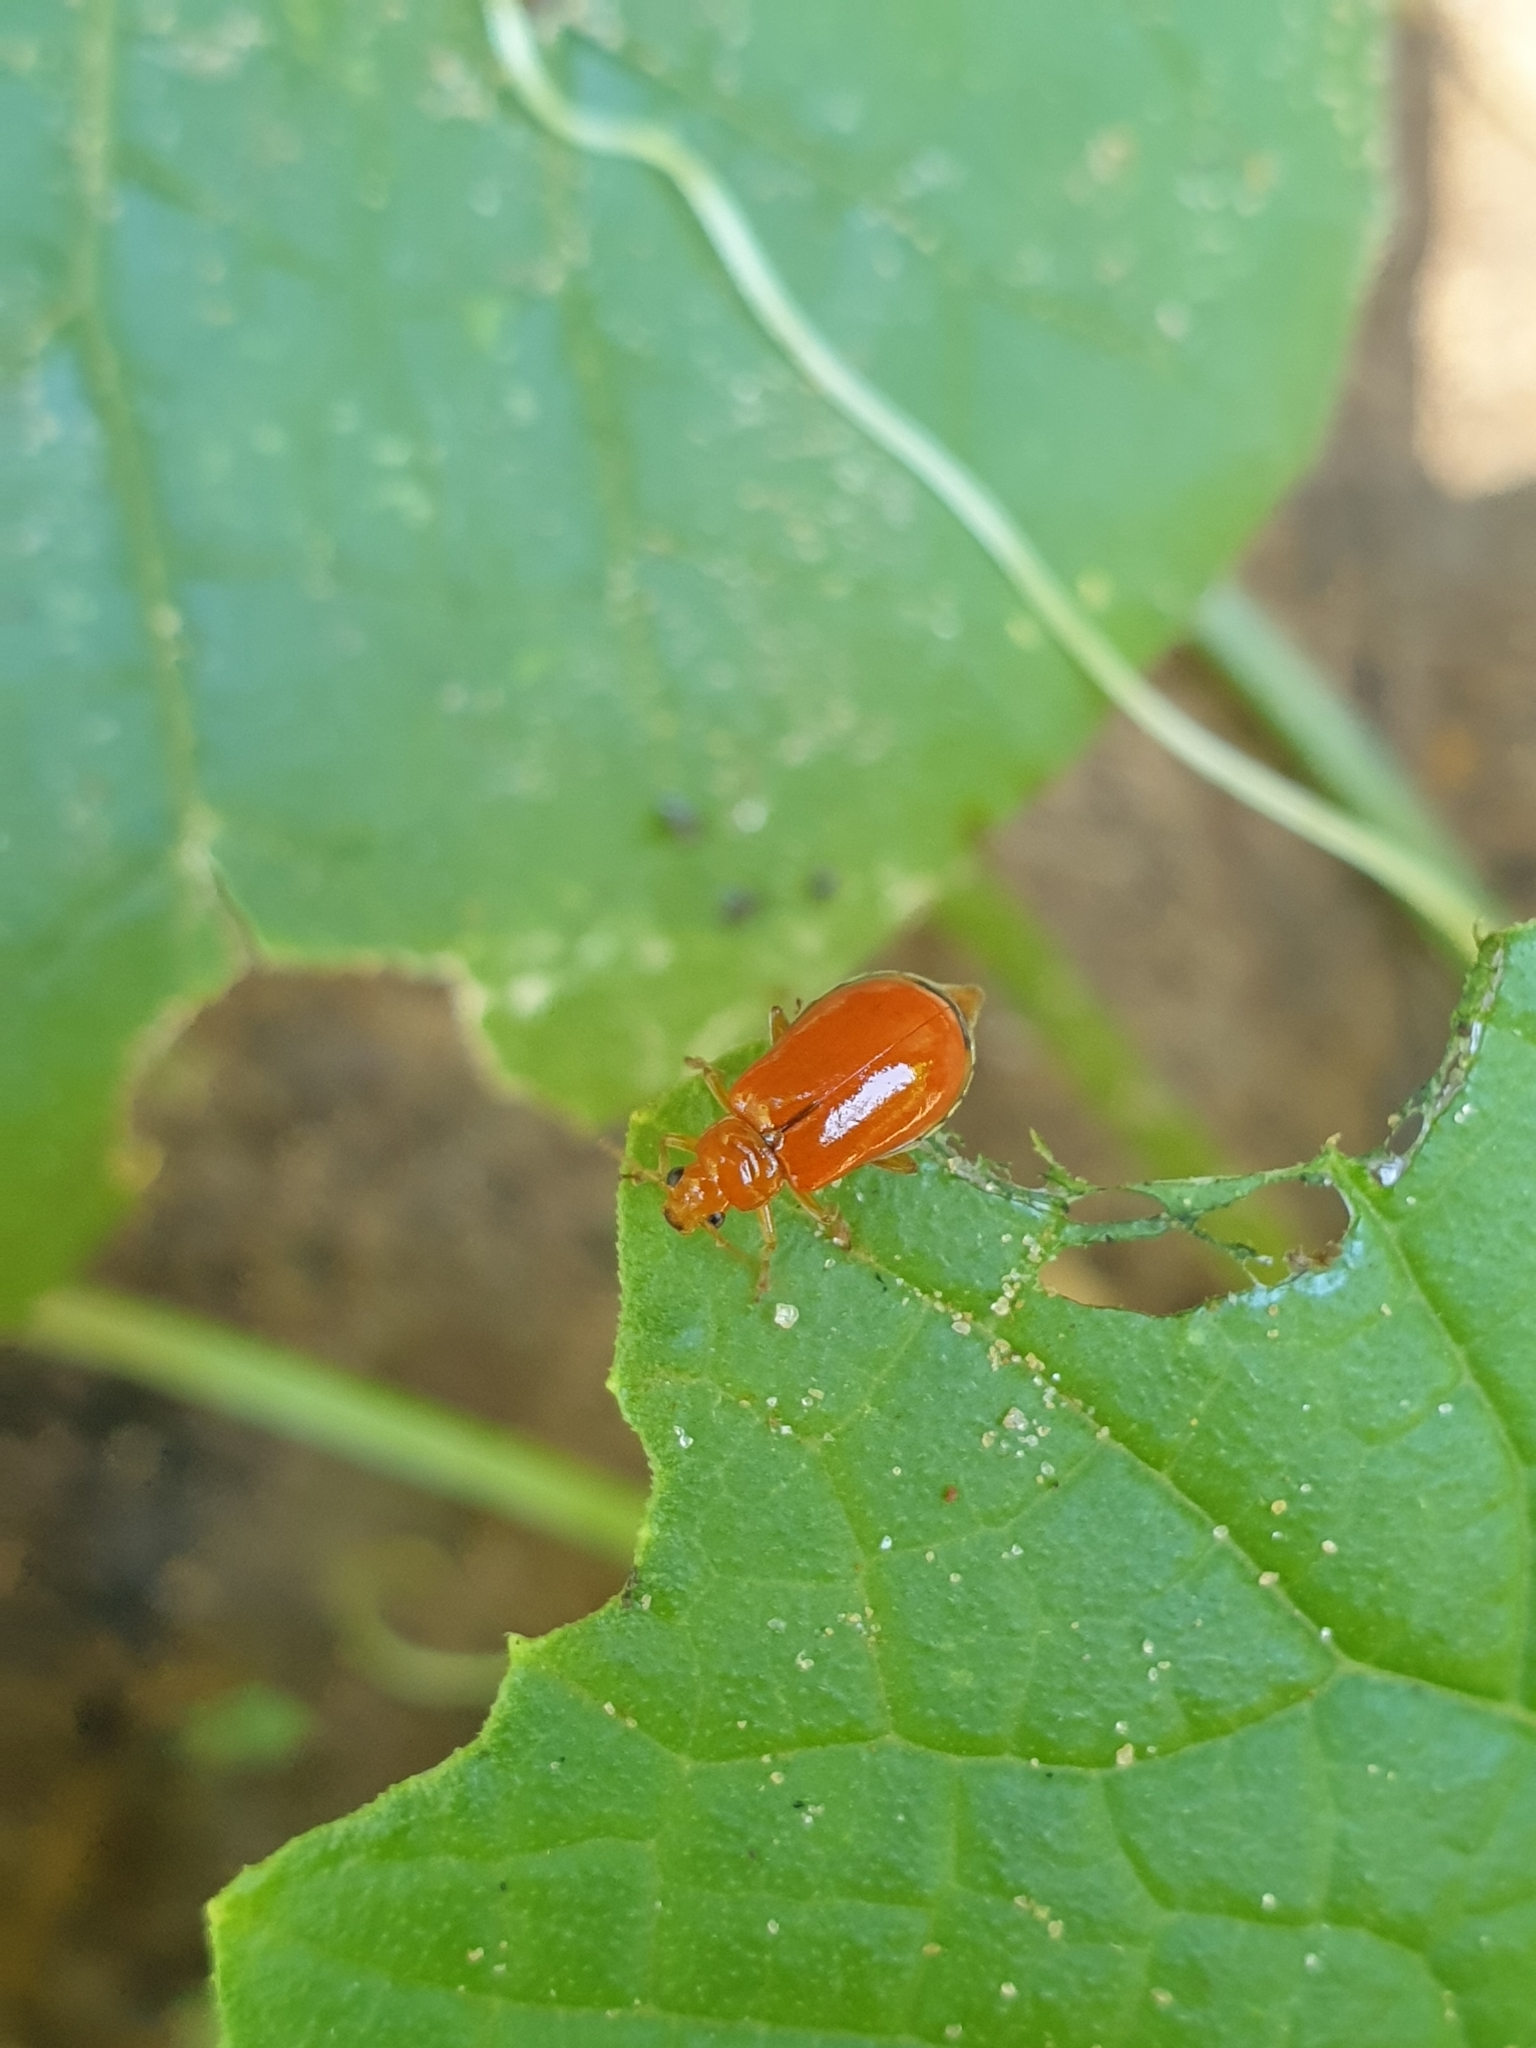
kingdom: Animalia
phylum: Arthropoda
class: Insecta
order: Coleoptera
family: Chrysomelidae
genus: Aulacophora
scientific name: Aulacophora
